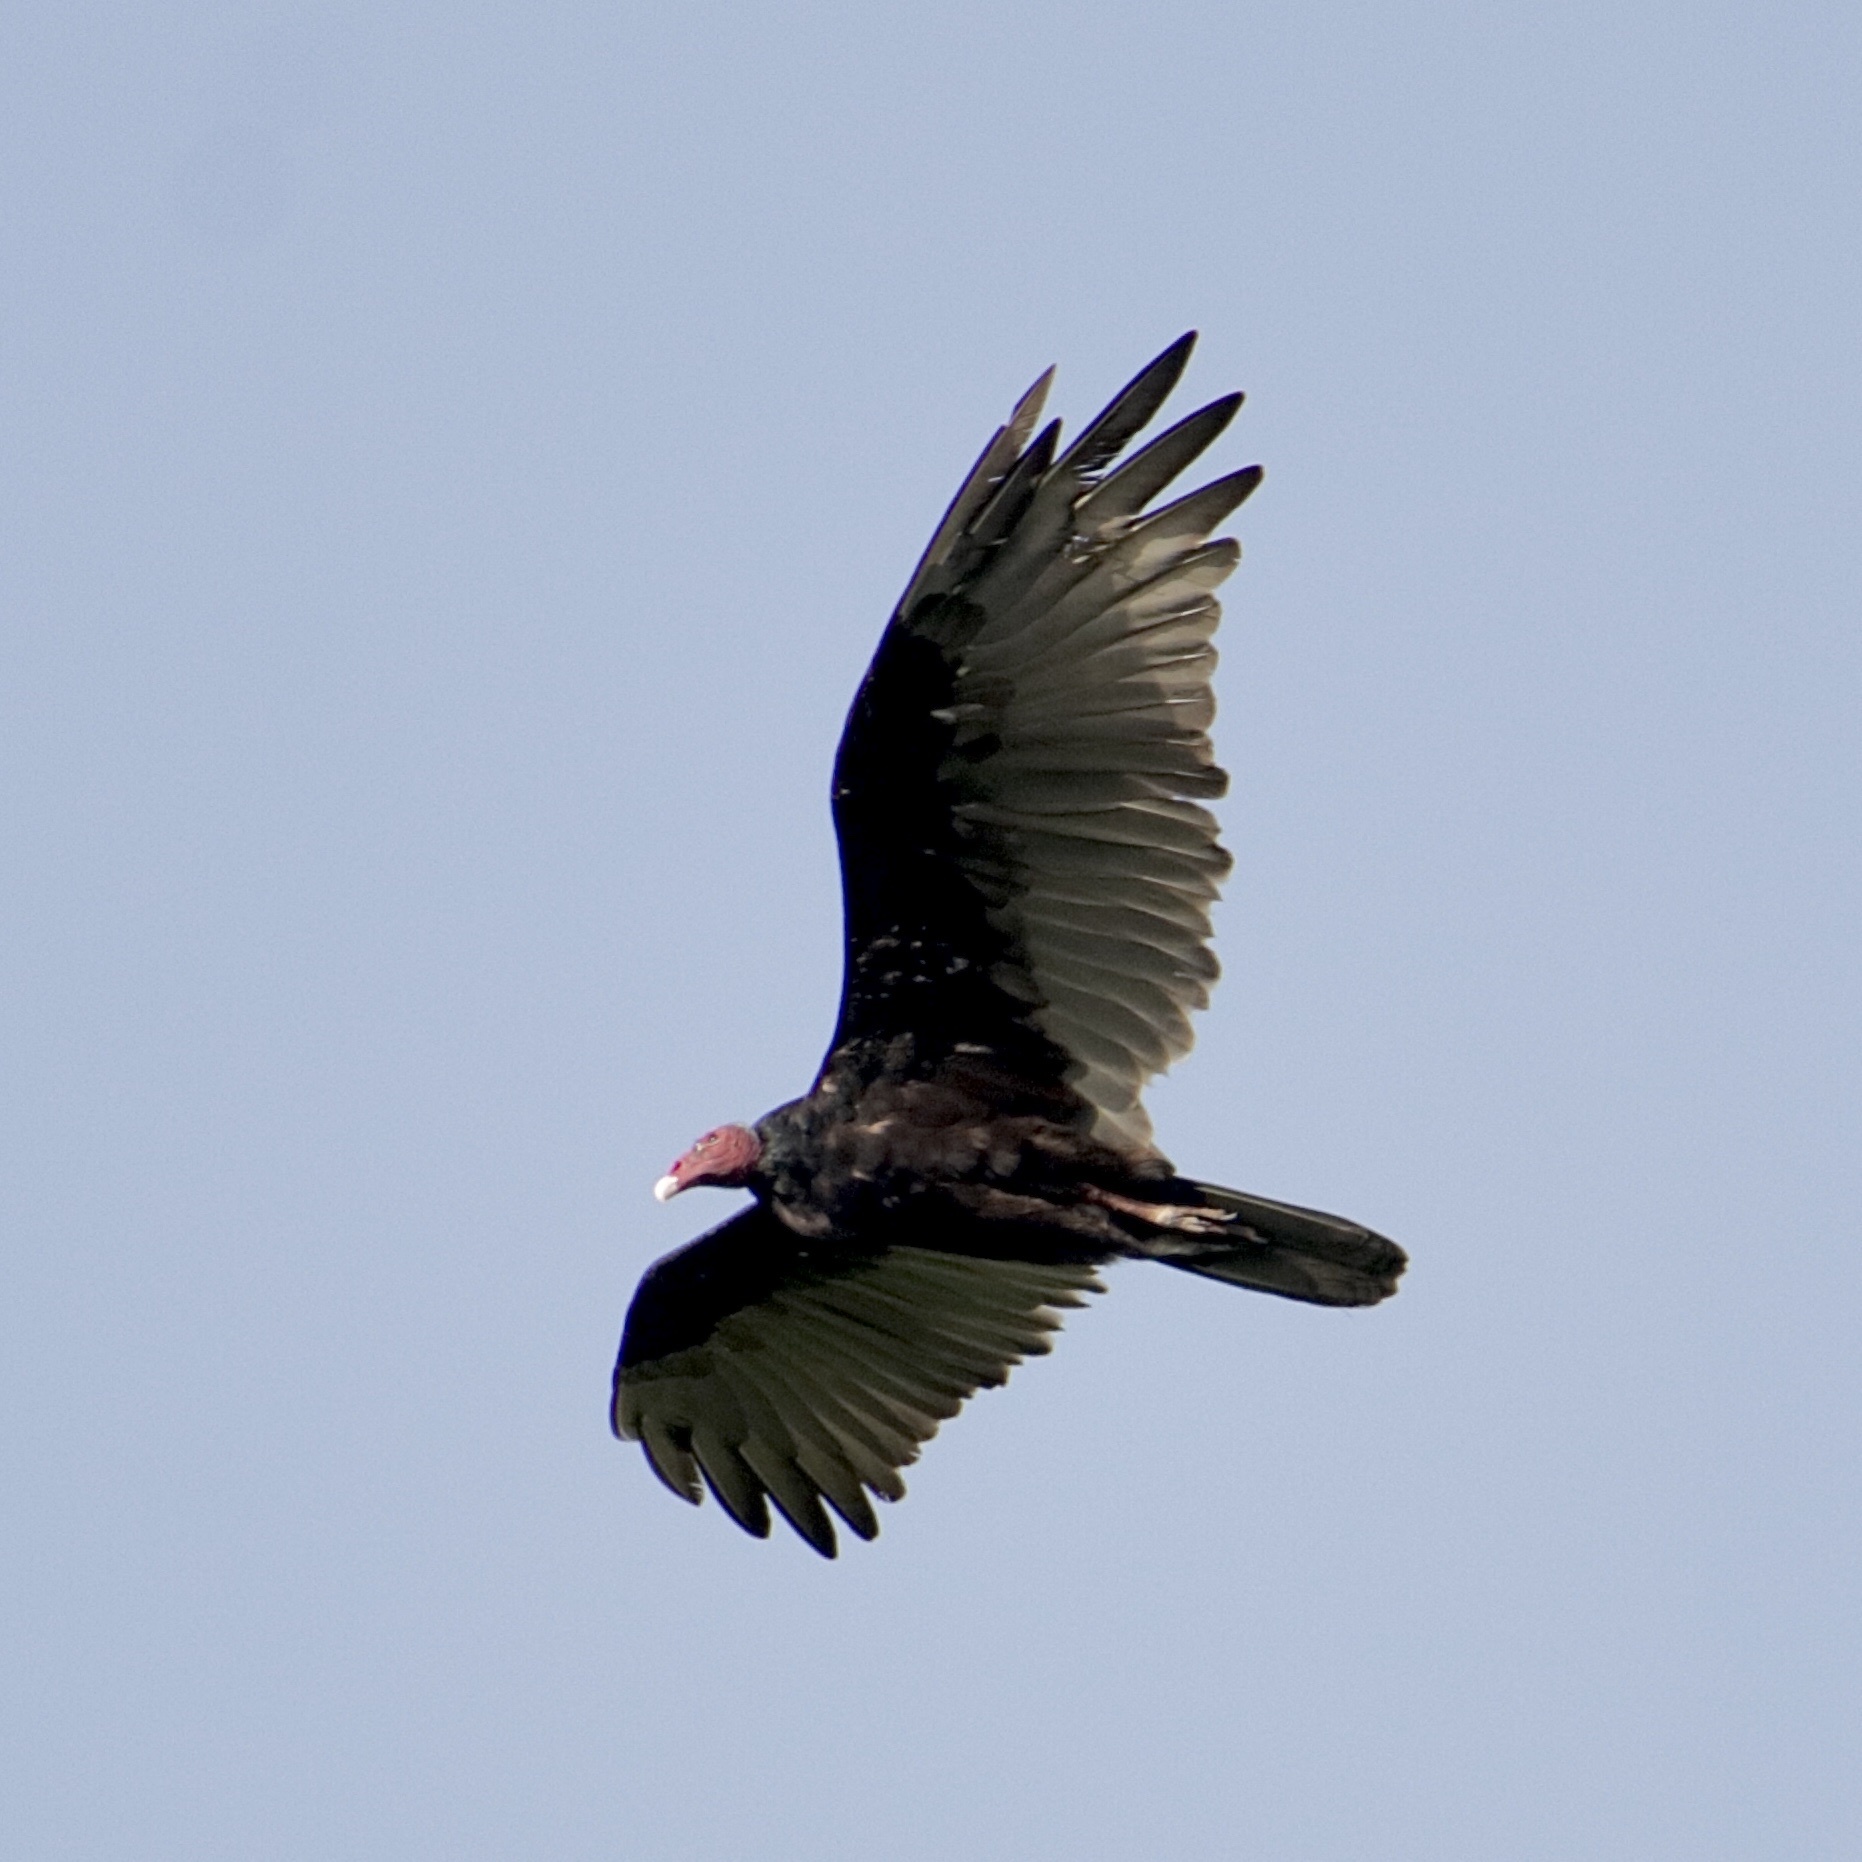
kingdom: Animalia
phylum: Chordata
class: Aves
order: Accipitriformes
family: Cathartidae
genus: Cathartes
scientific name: Cathartes aura
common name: Turkey vulture
